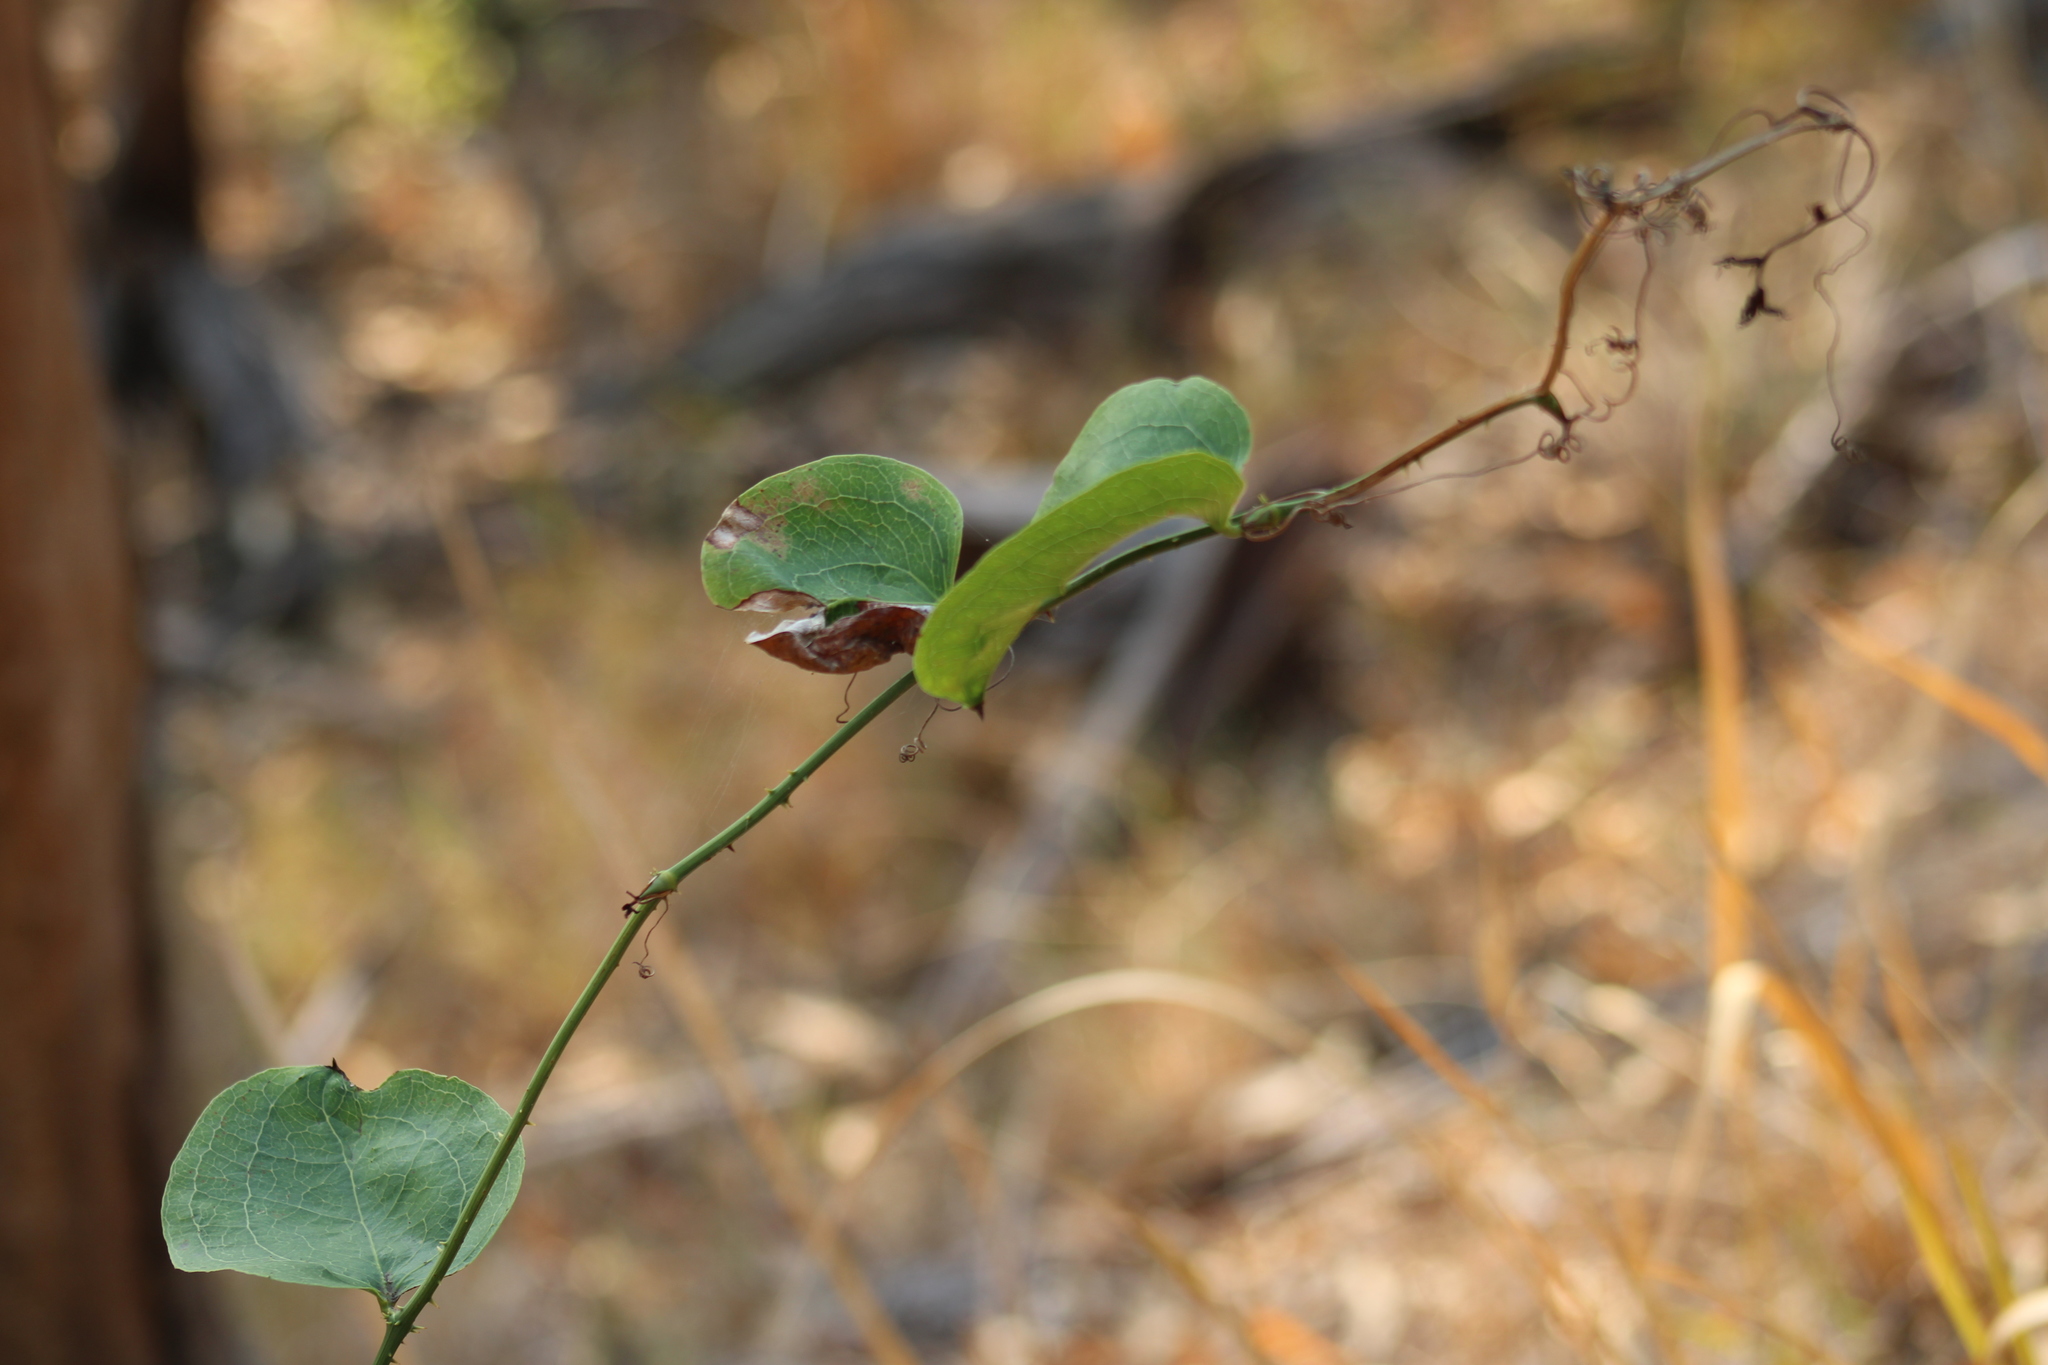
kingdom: Plantae
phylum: Tracheophyta
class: Liliopsida
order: Liliales
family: Smilacaceae
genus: Smilax
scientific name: Smilax australis
